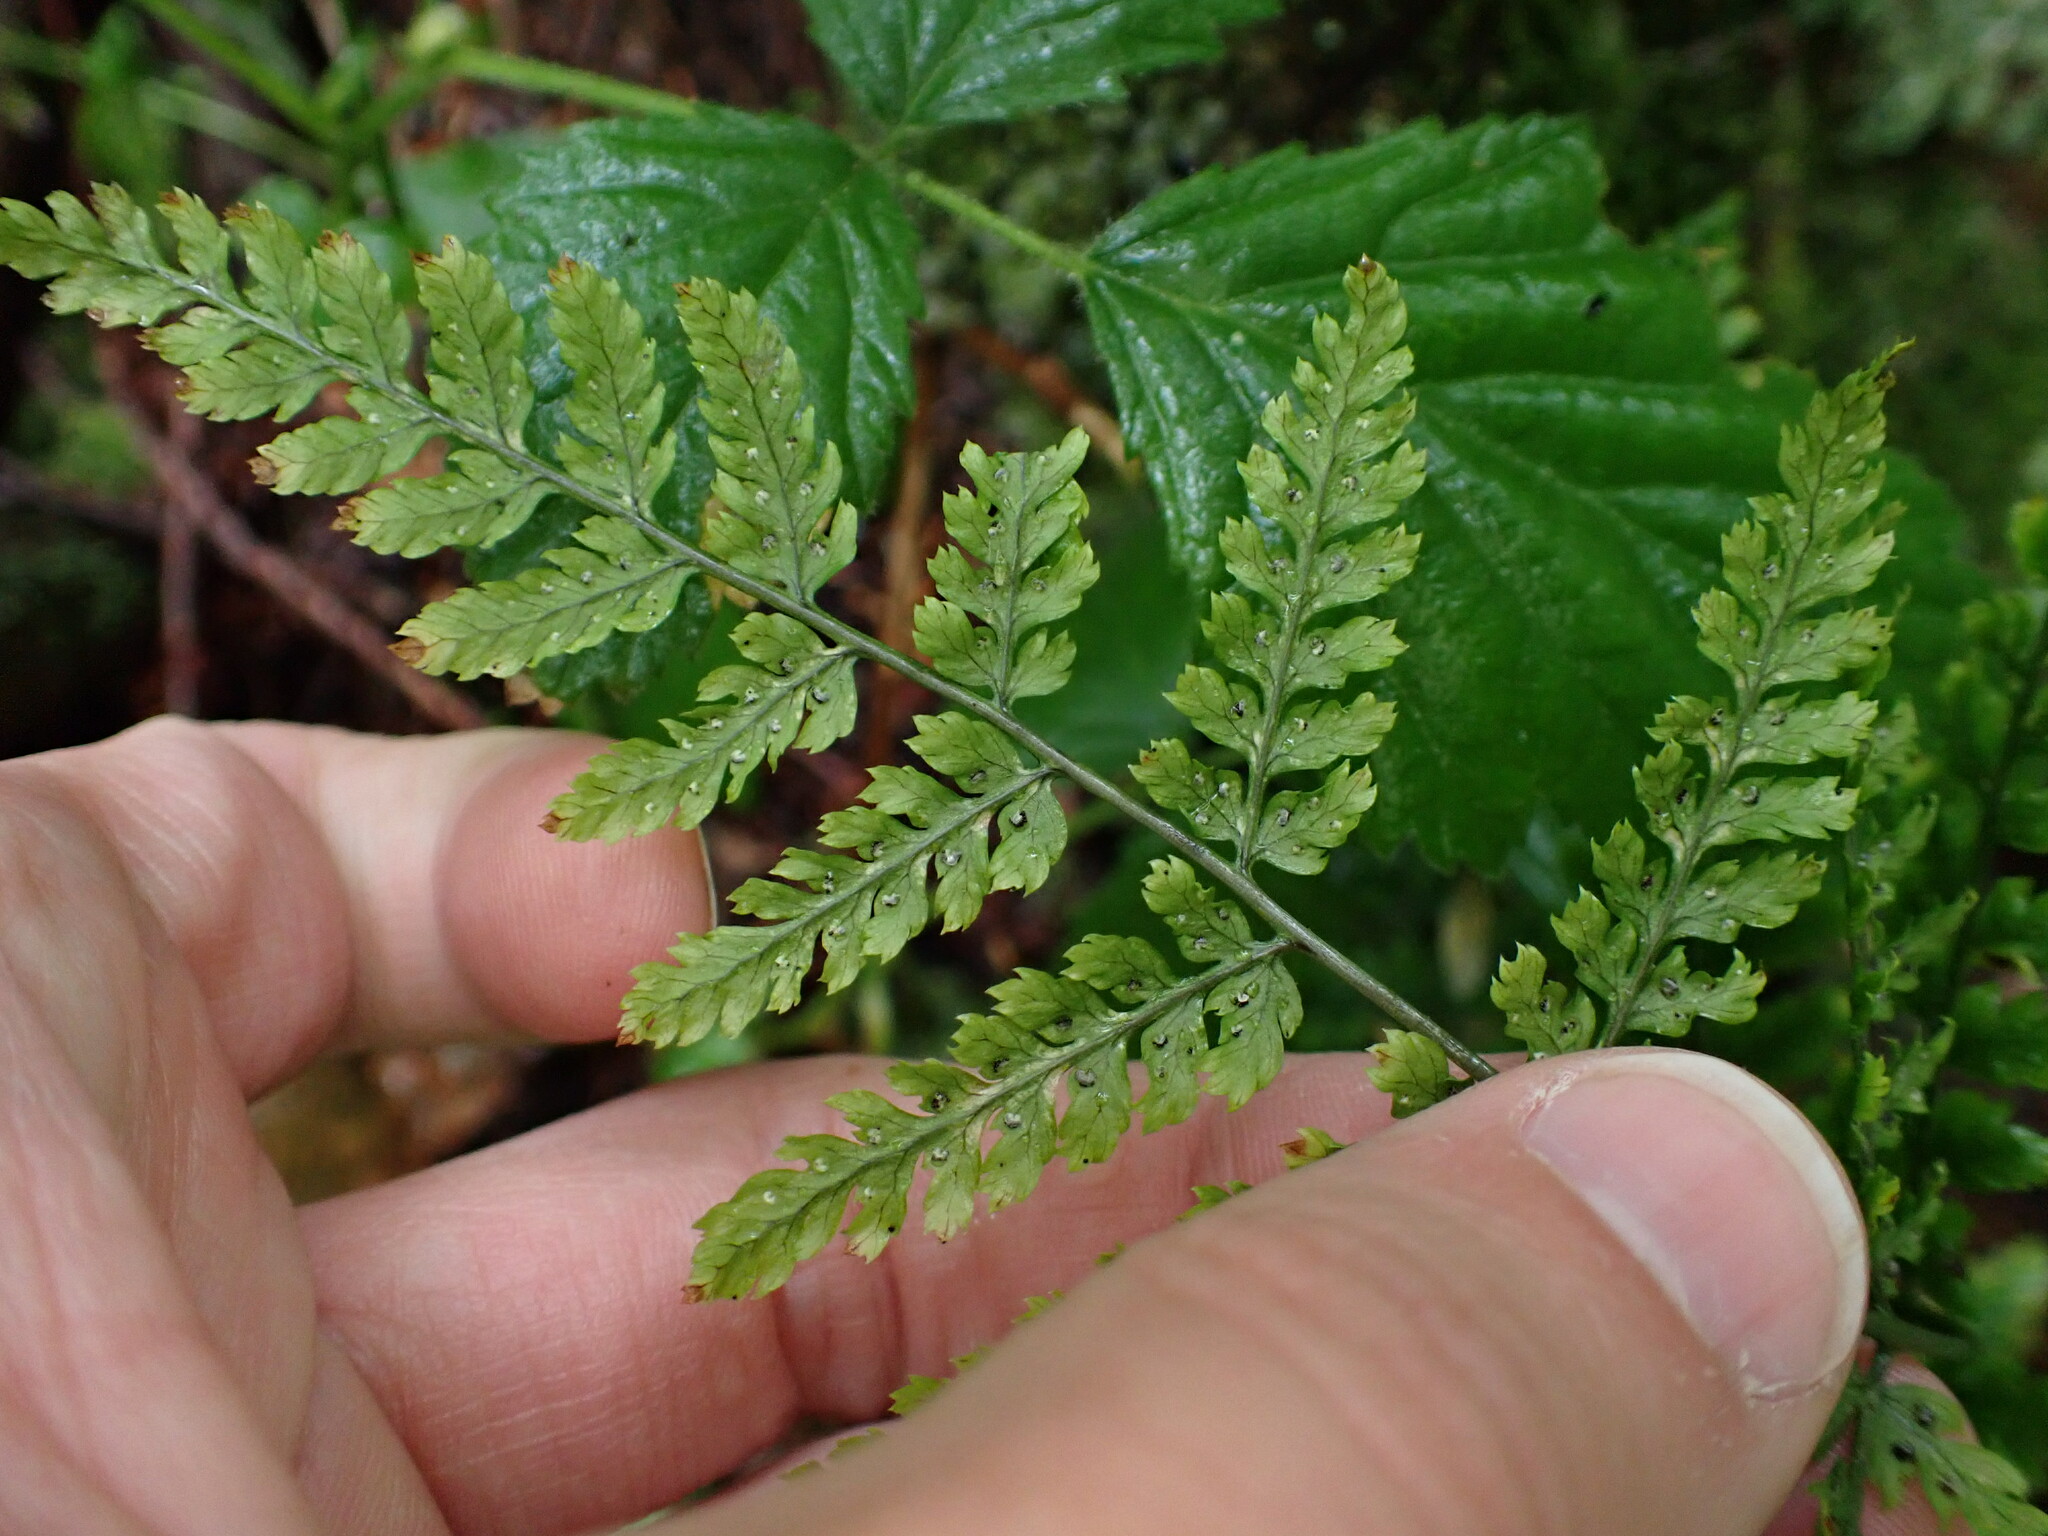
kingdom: Plantae
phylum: Tracheophyta
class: Polypodiopsida
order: Polypodiales
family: Dryopteridaceae
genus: Dryopteris
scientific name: Dryopteris expansa
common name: Northern buckler fern
